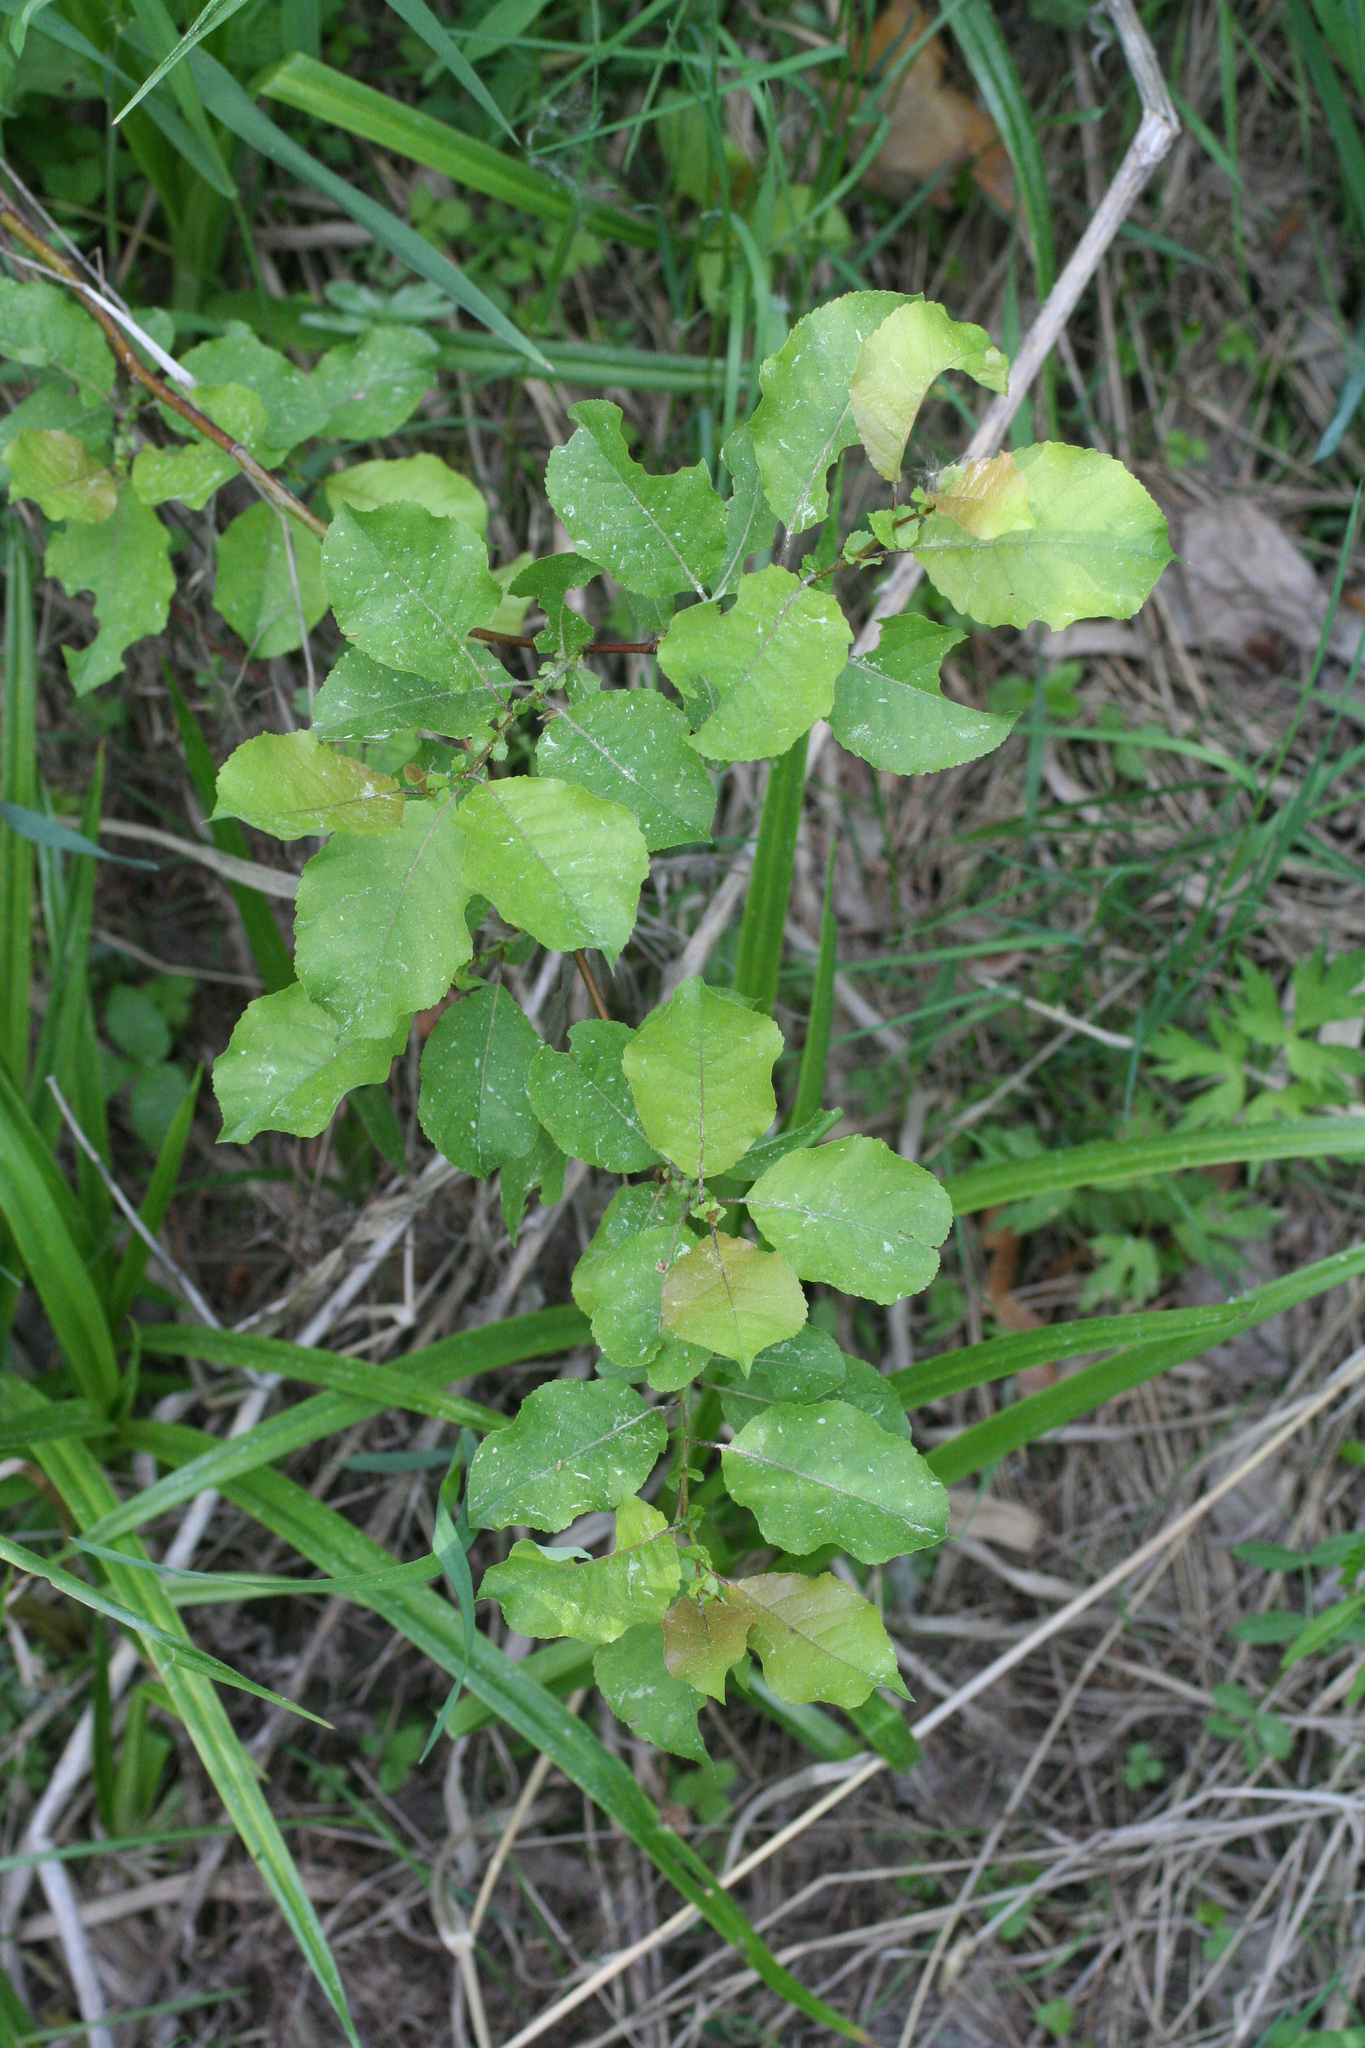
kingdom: Plantae
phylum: Tracheophyta
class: Magnoliopsida
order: Malpighiales
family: Salicaceae
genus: Salix
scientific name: Salix pyrolifolia
